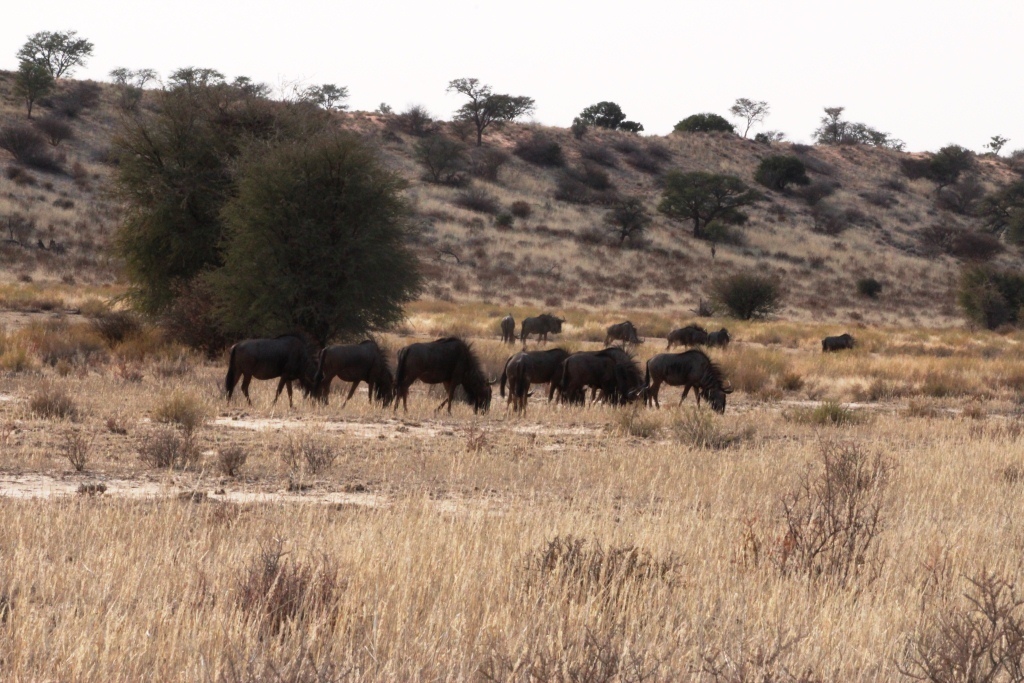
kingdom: Animalia
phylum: Chordata
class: Mammalia
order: Artiodactyla
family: Bovidae
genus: Connochaetes
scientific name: Connochaetes taurinus
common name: Blue wildebeest
